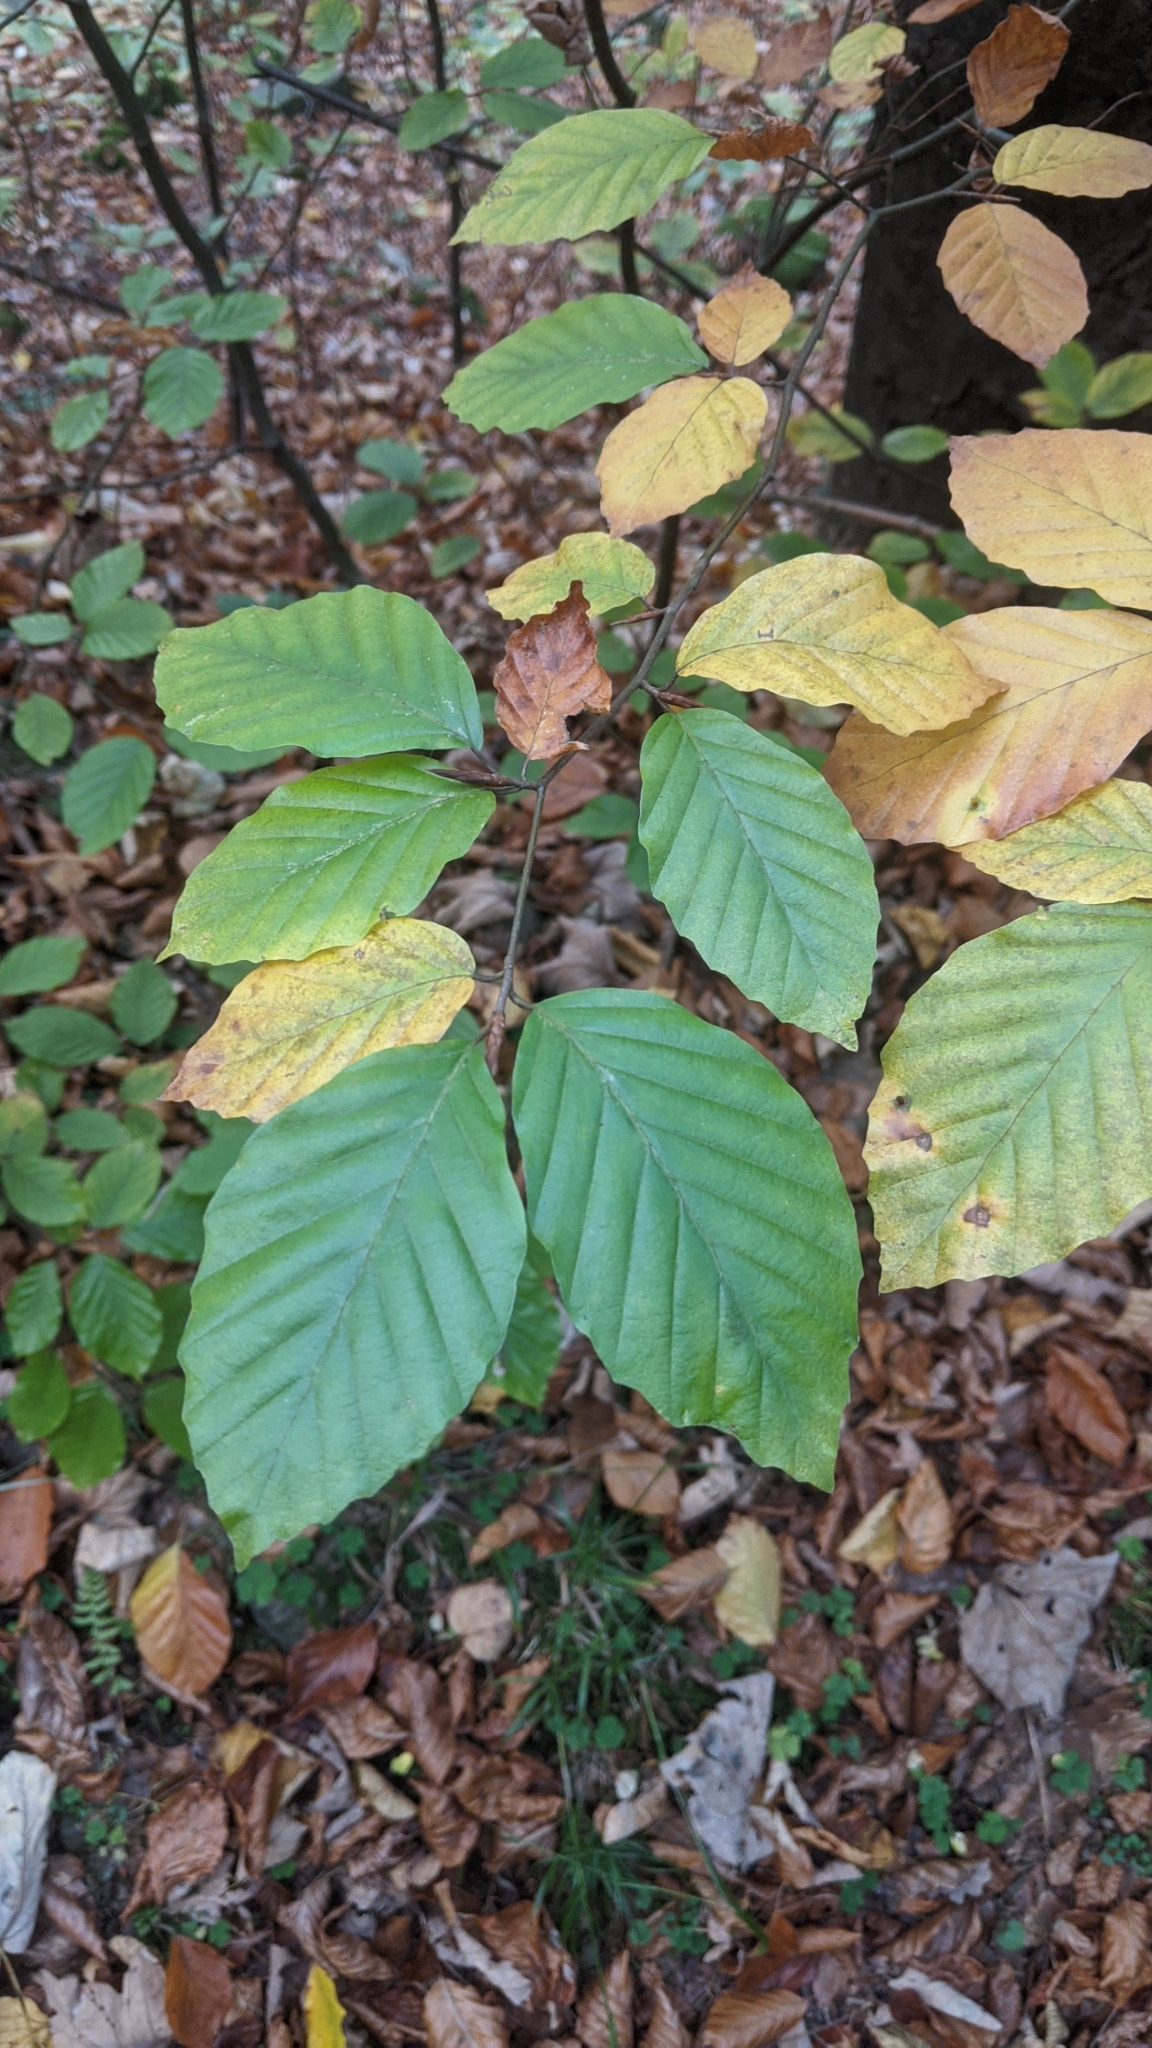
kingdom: Plantae
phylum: Tracheophyta
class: Magnoliopsida
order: Fagales
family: Fagaceae
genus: Fagus
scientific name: Fagus sylvatica
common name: Beech
